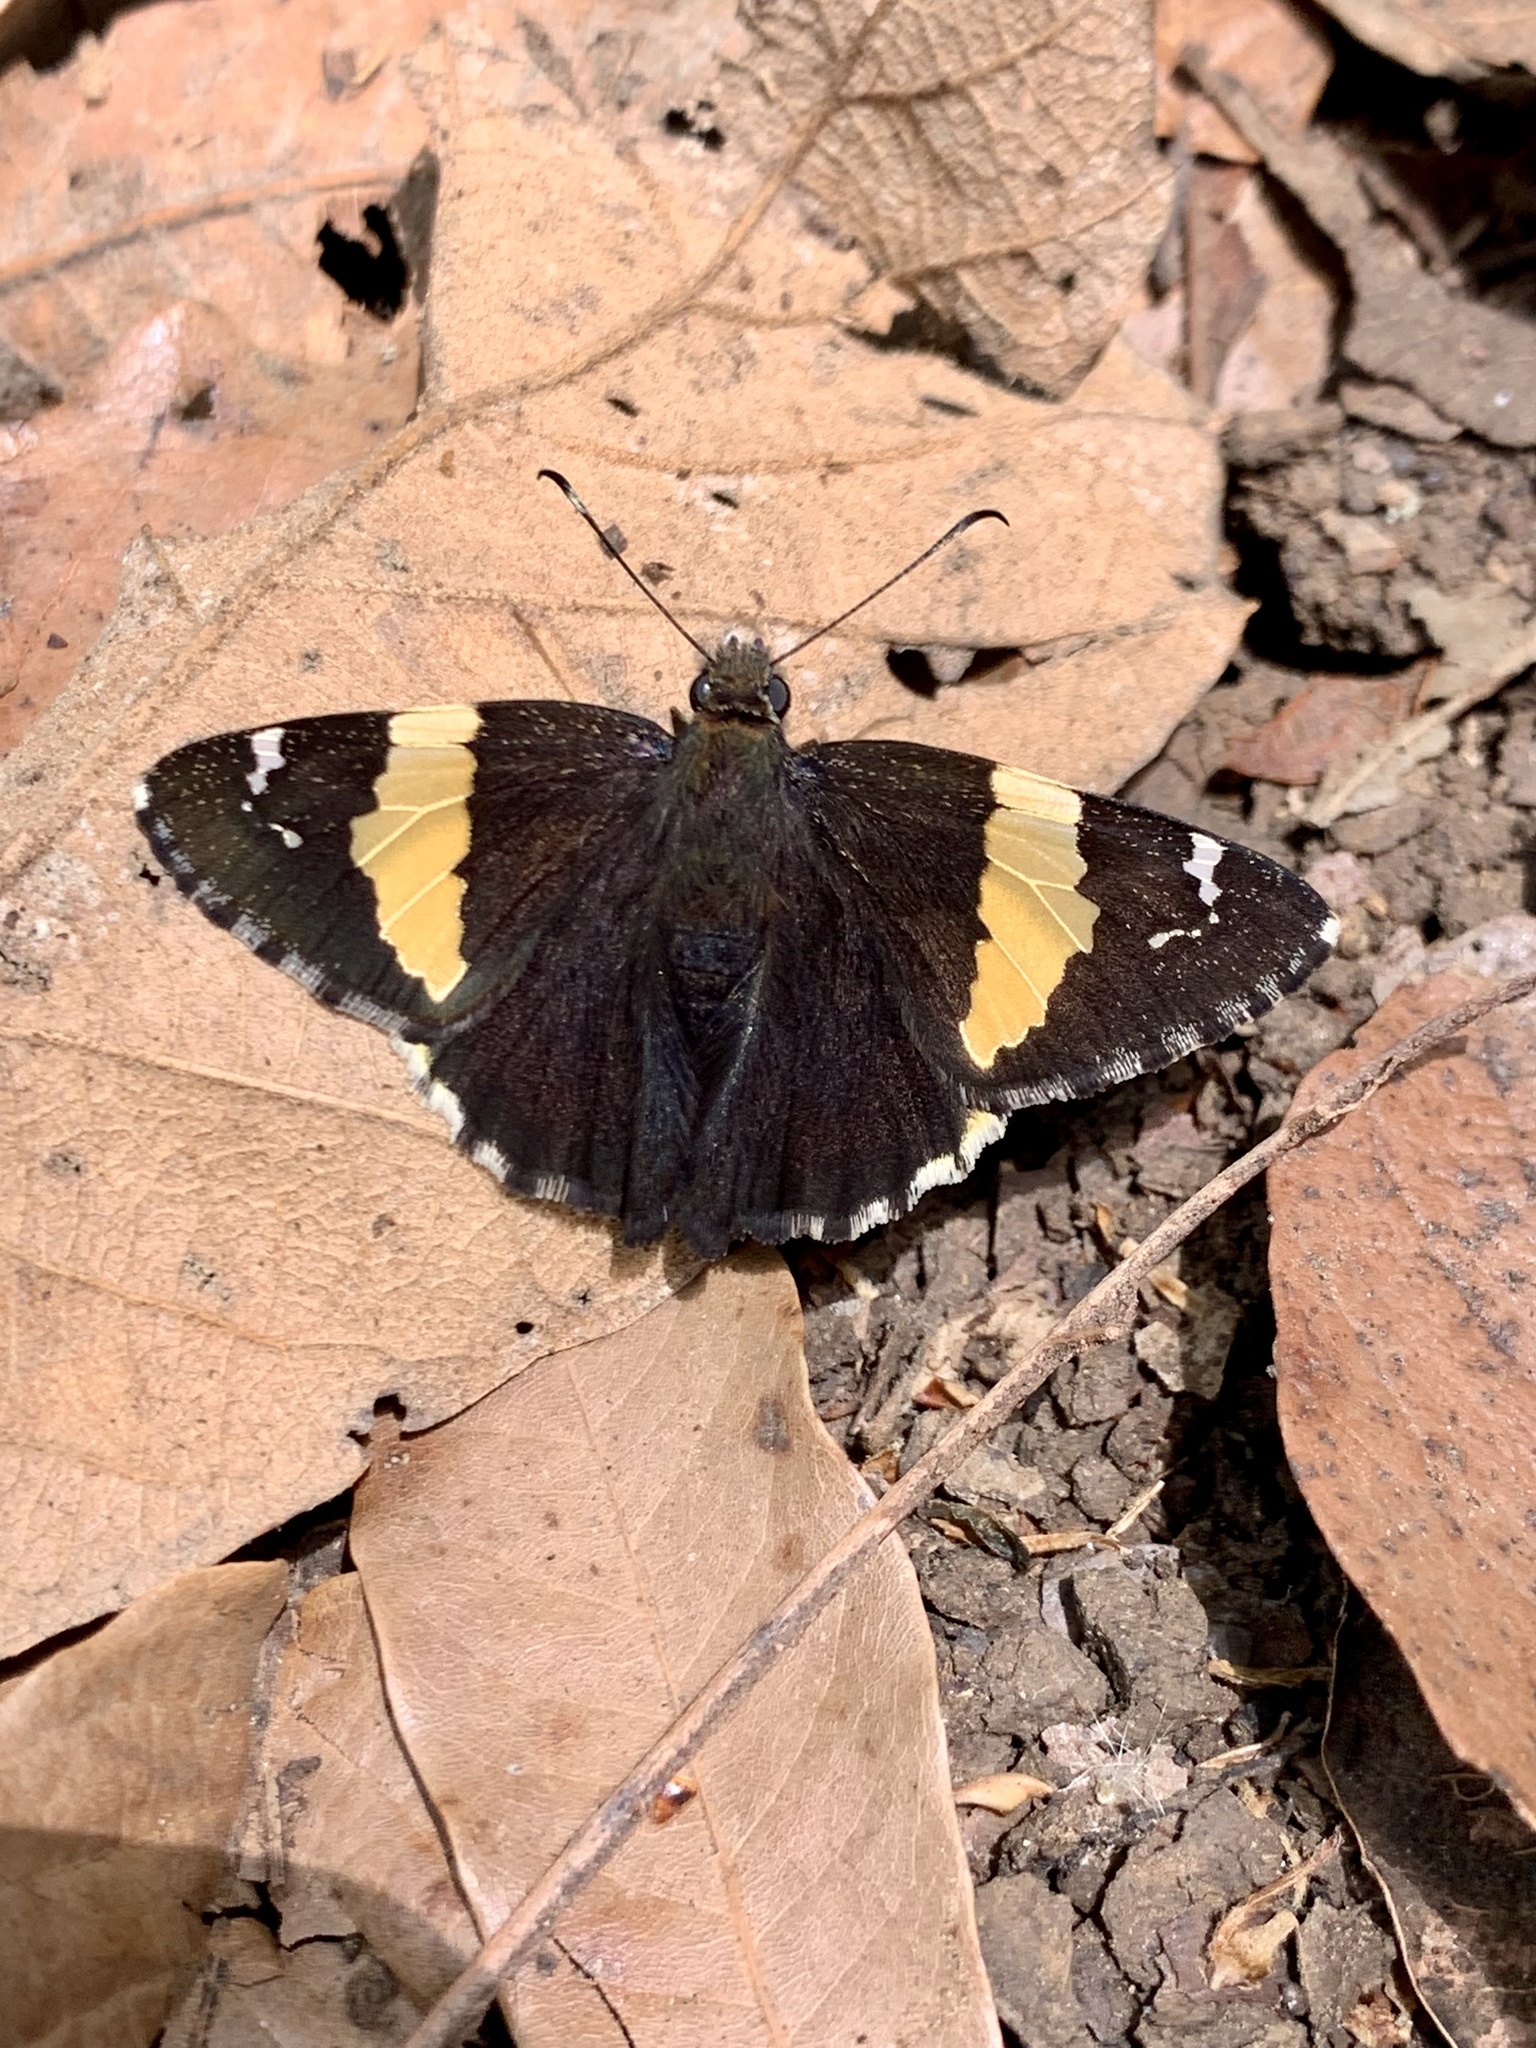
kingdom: Animalia
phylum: Arthropoda
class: Arachnida
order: Scorpiones
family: Bothriuridae
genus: Telegonus
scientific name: Telegonus cellus
